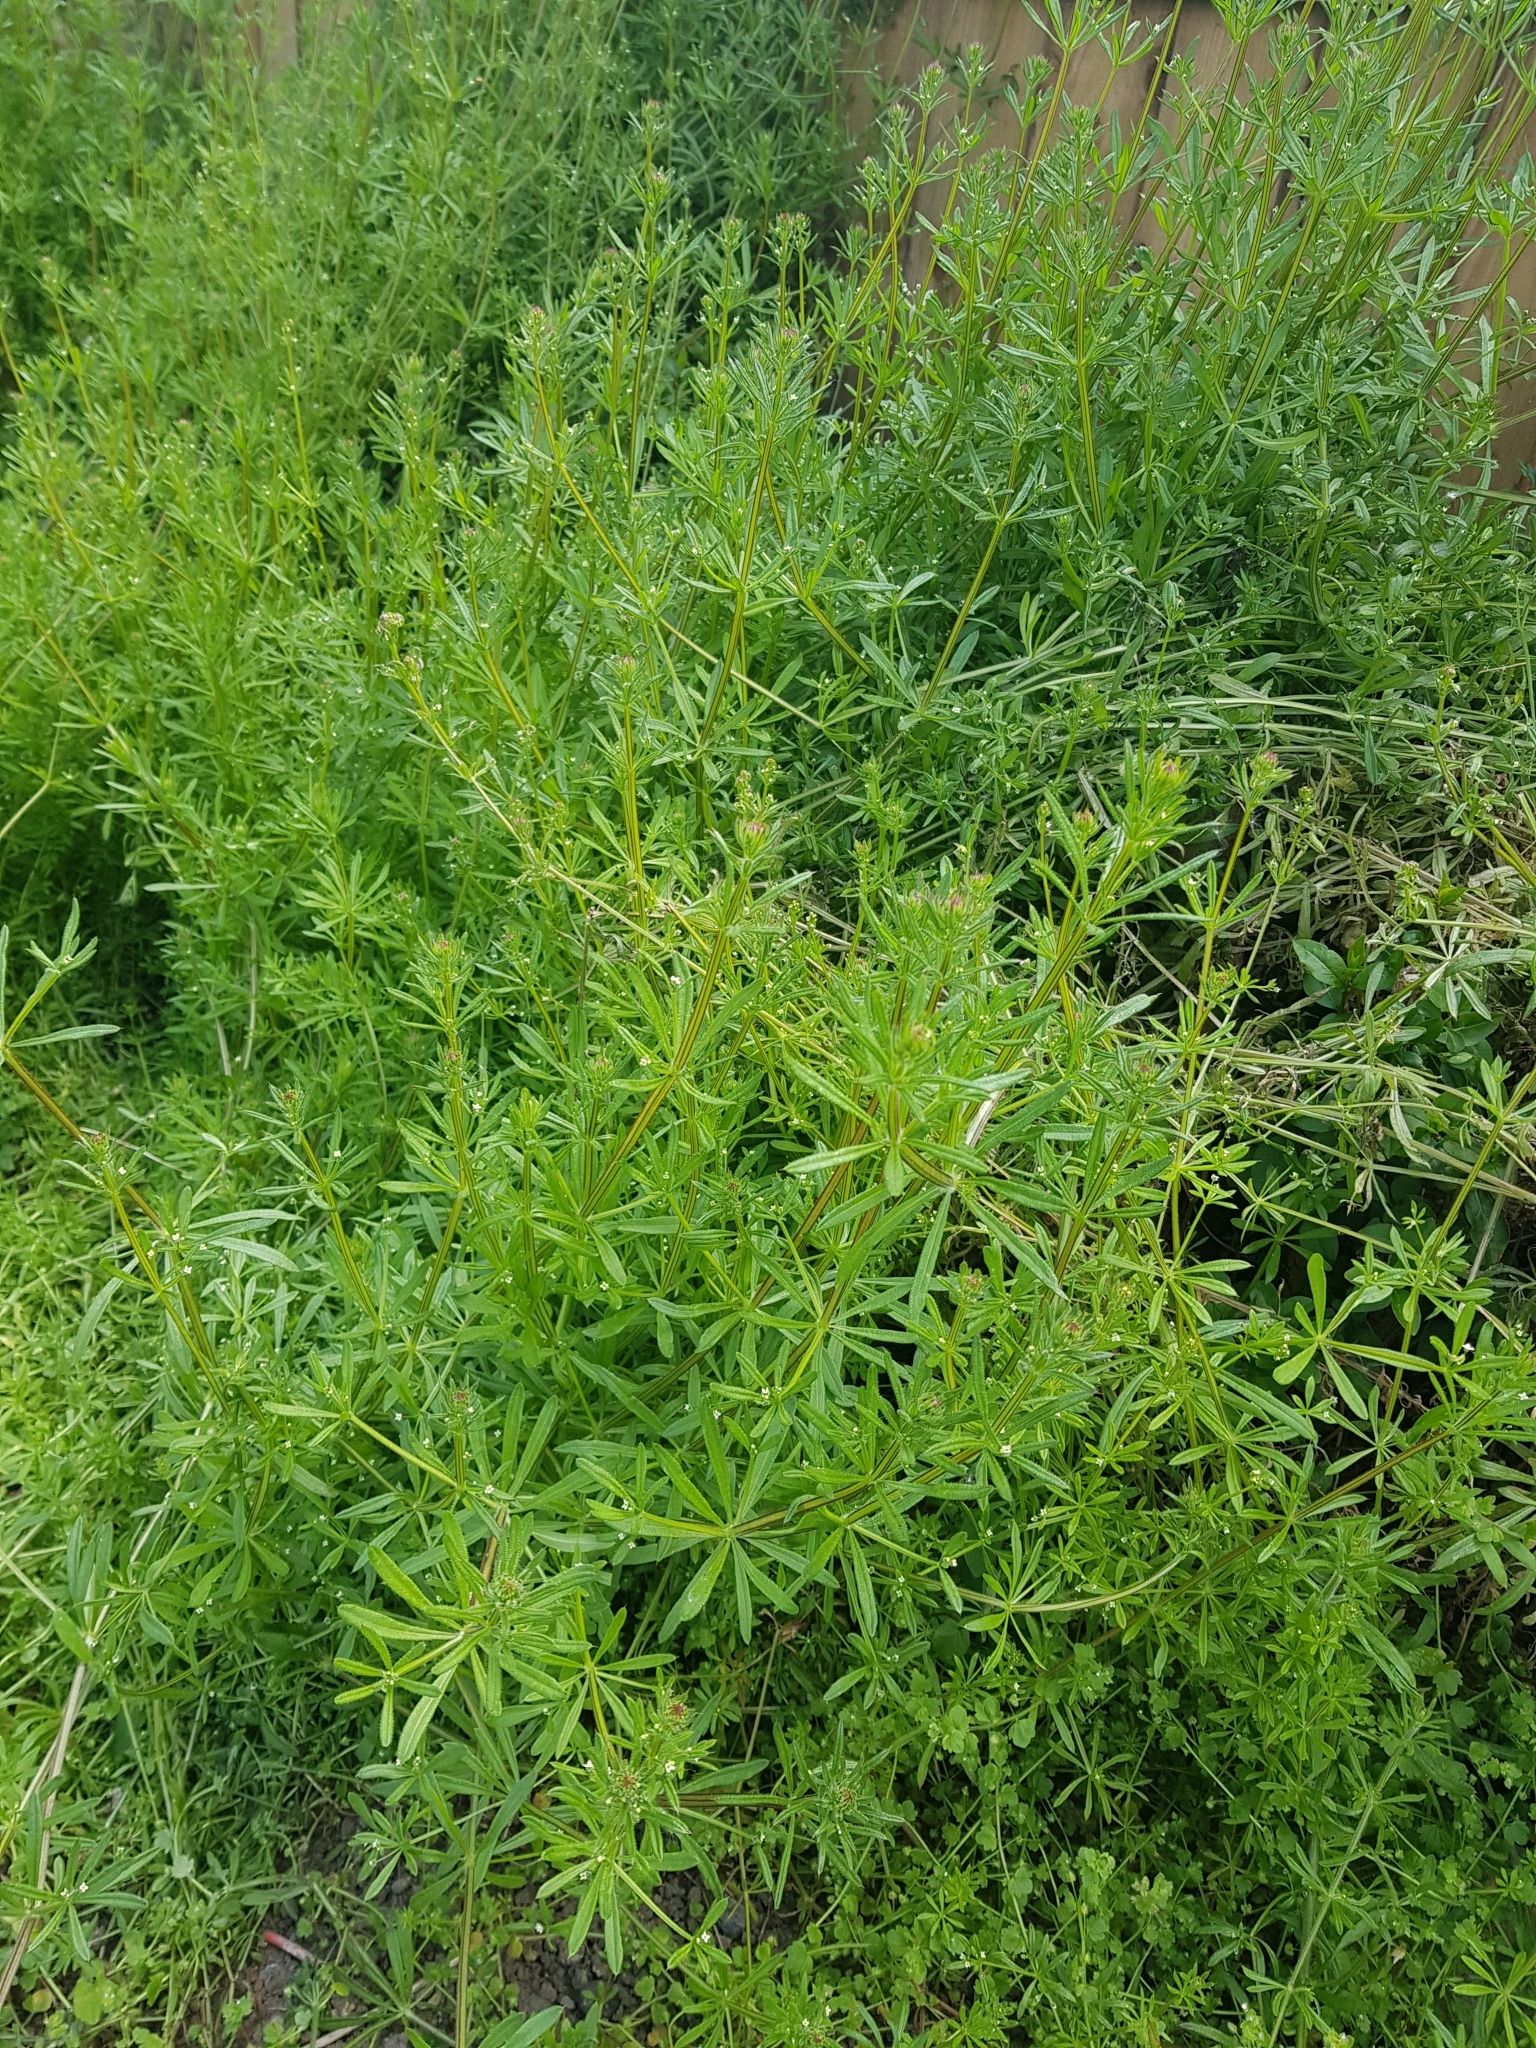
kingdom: Plantae
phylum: Tracheophyta
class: Magnoliopsida
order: Gentianales
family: Rubiaceae
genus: Galium
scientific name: Galium aparine
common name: Cleavers
